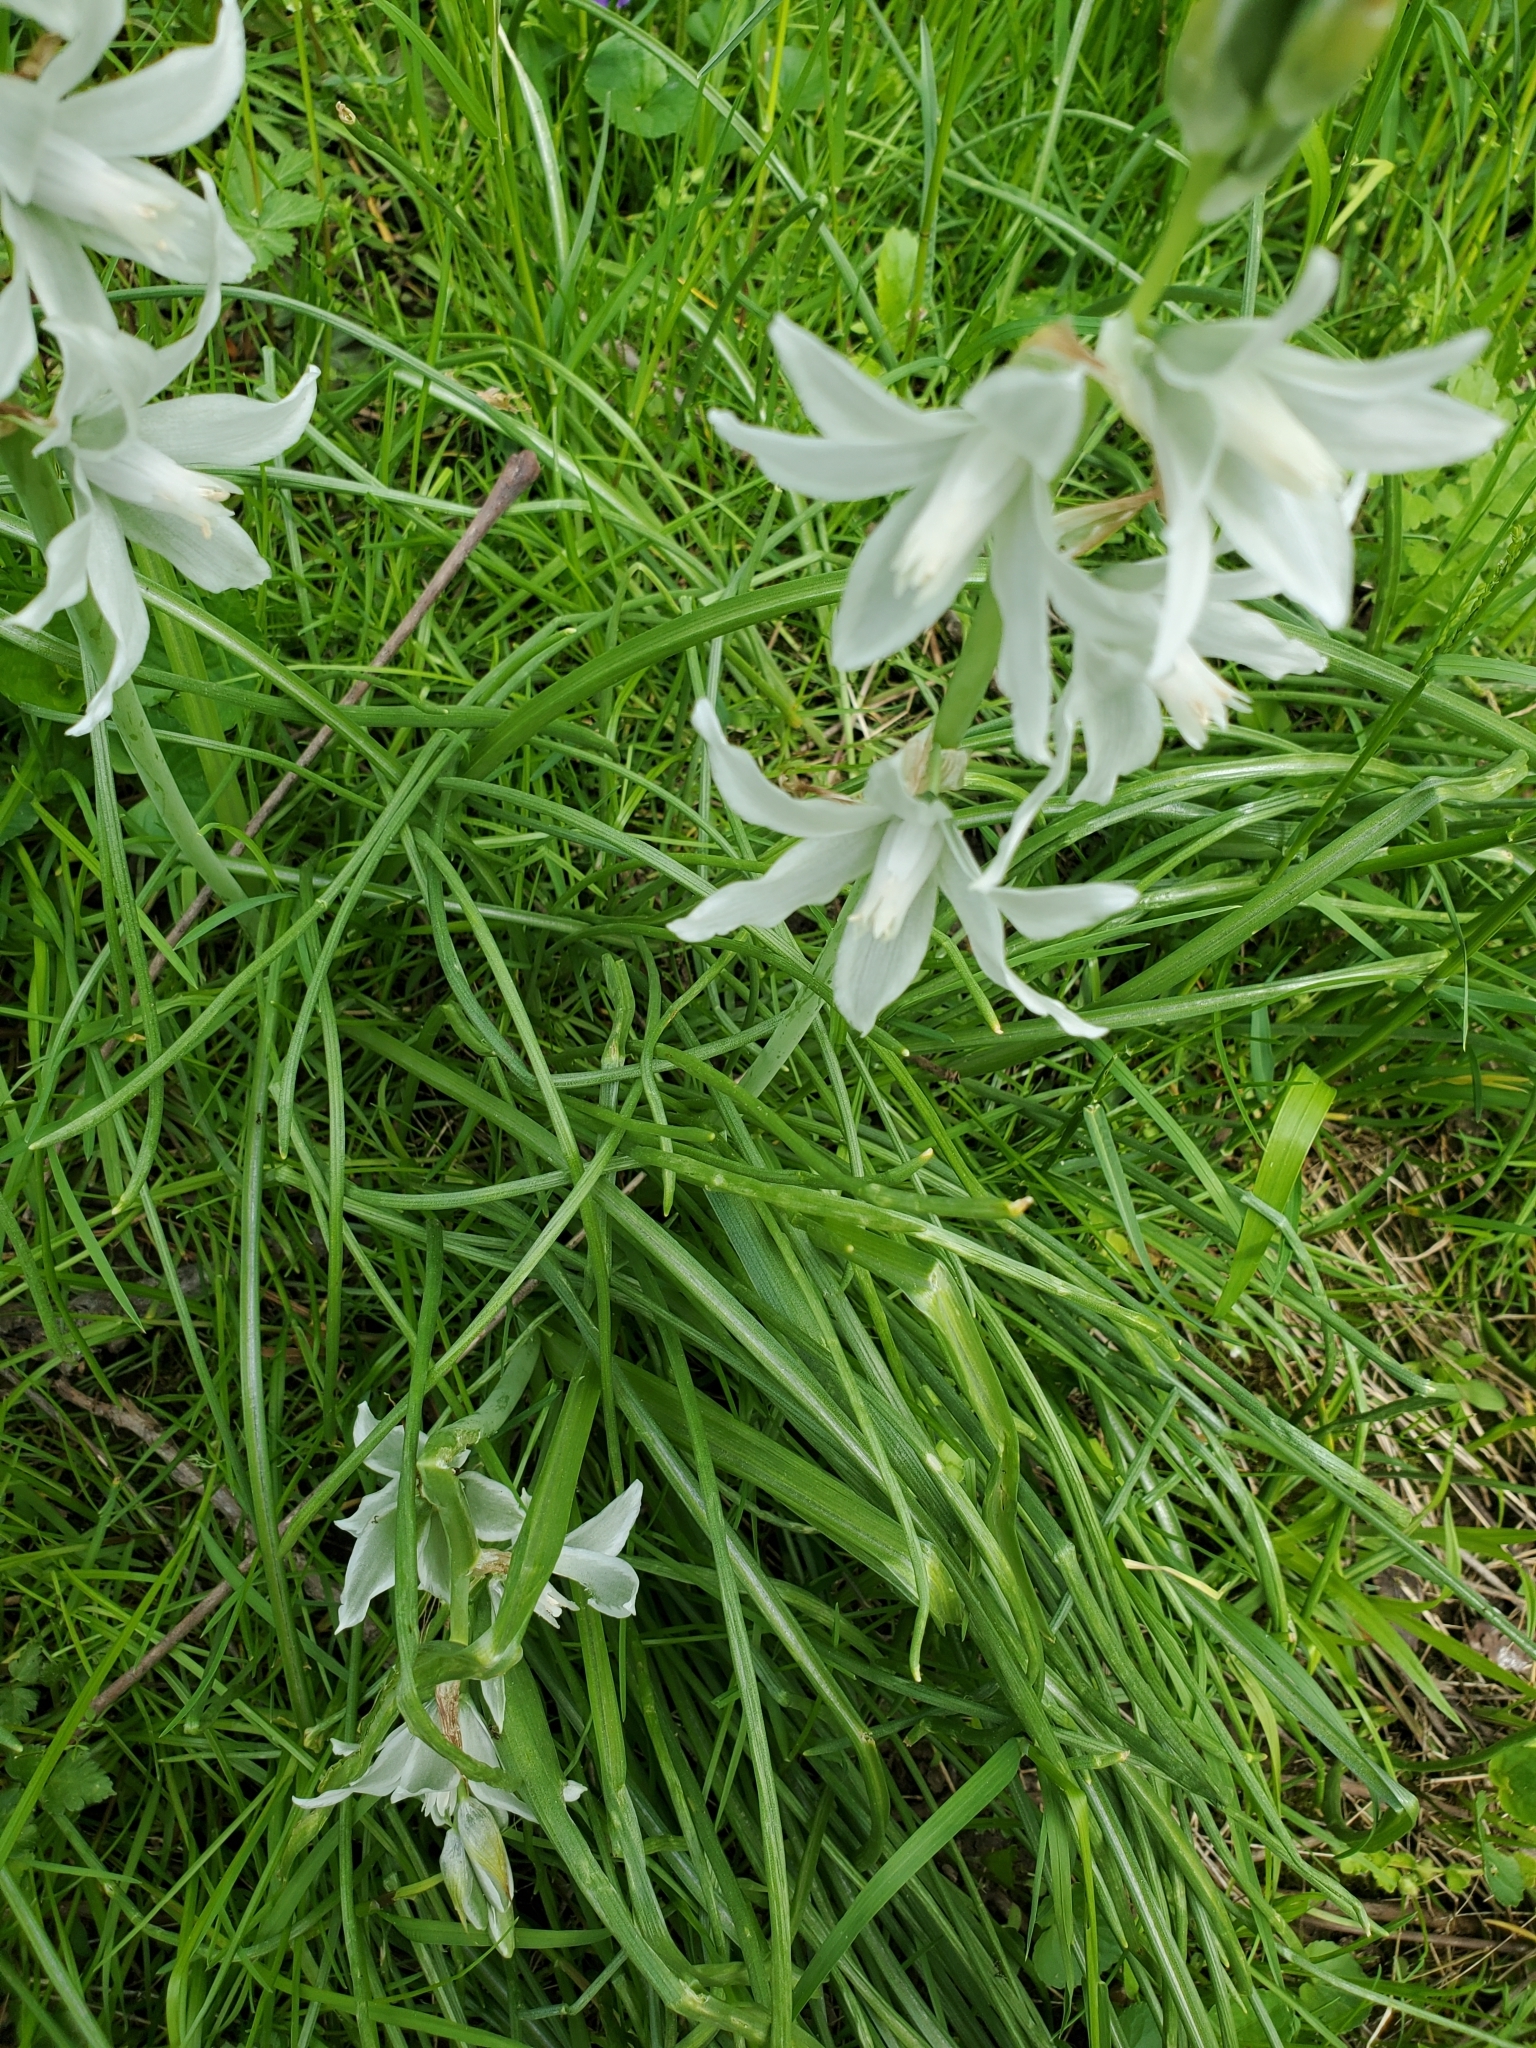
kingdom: Plantae
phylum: Tracheophyta
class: Liliopsida
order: Asparagales
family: Asparagaceae
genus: Ornithogalum
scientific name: Ornithogalum nutans
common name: Drooping star-of-bethlehem
